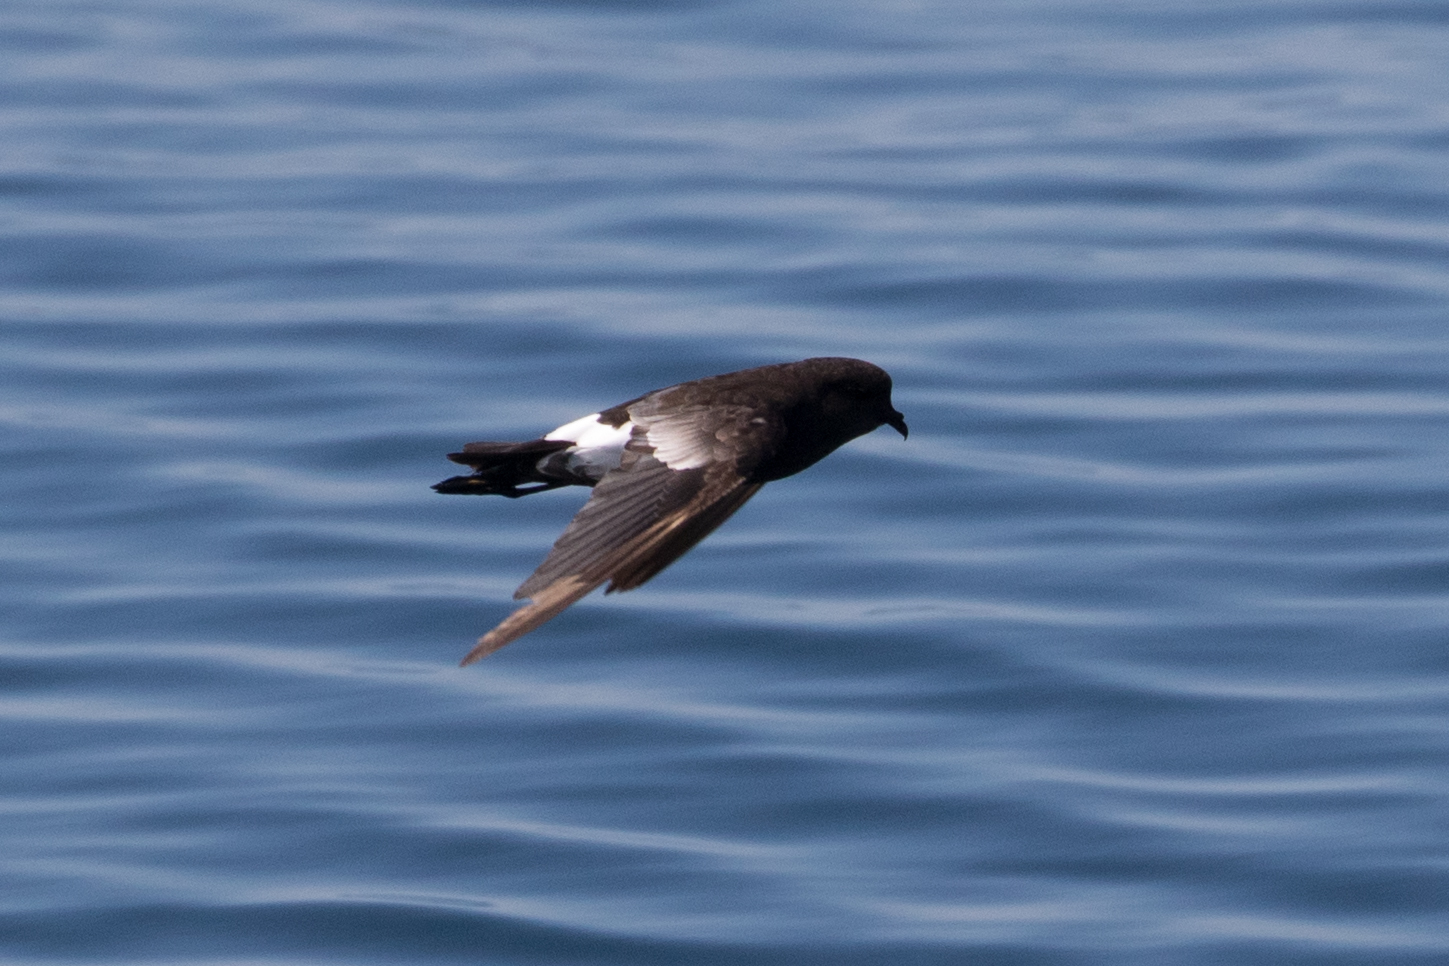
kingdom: Animalia
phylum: Chordata
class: Aves
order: Procellariiformes
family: Hydrobatidae
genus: Oceanites
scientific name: Oceanites oceanicus
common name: Wilson's storm petrel
